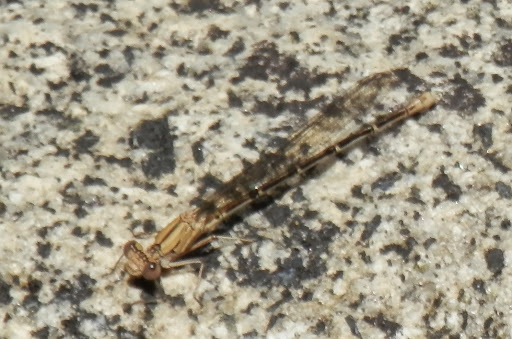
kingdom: Animalia
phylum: Arthropoda
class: Insecta
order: Odonata
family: Coenagrionidae
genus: Argia
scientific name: Argia emma
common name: Emma's dancer
